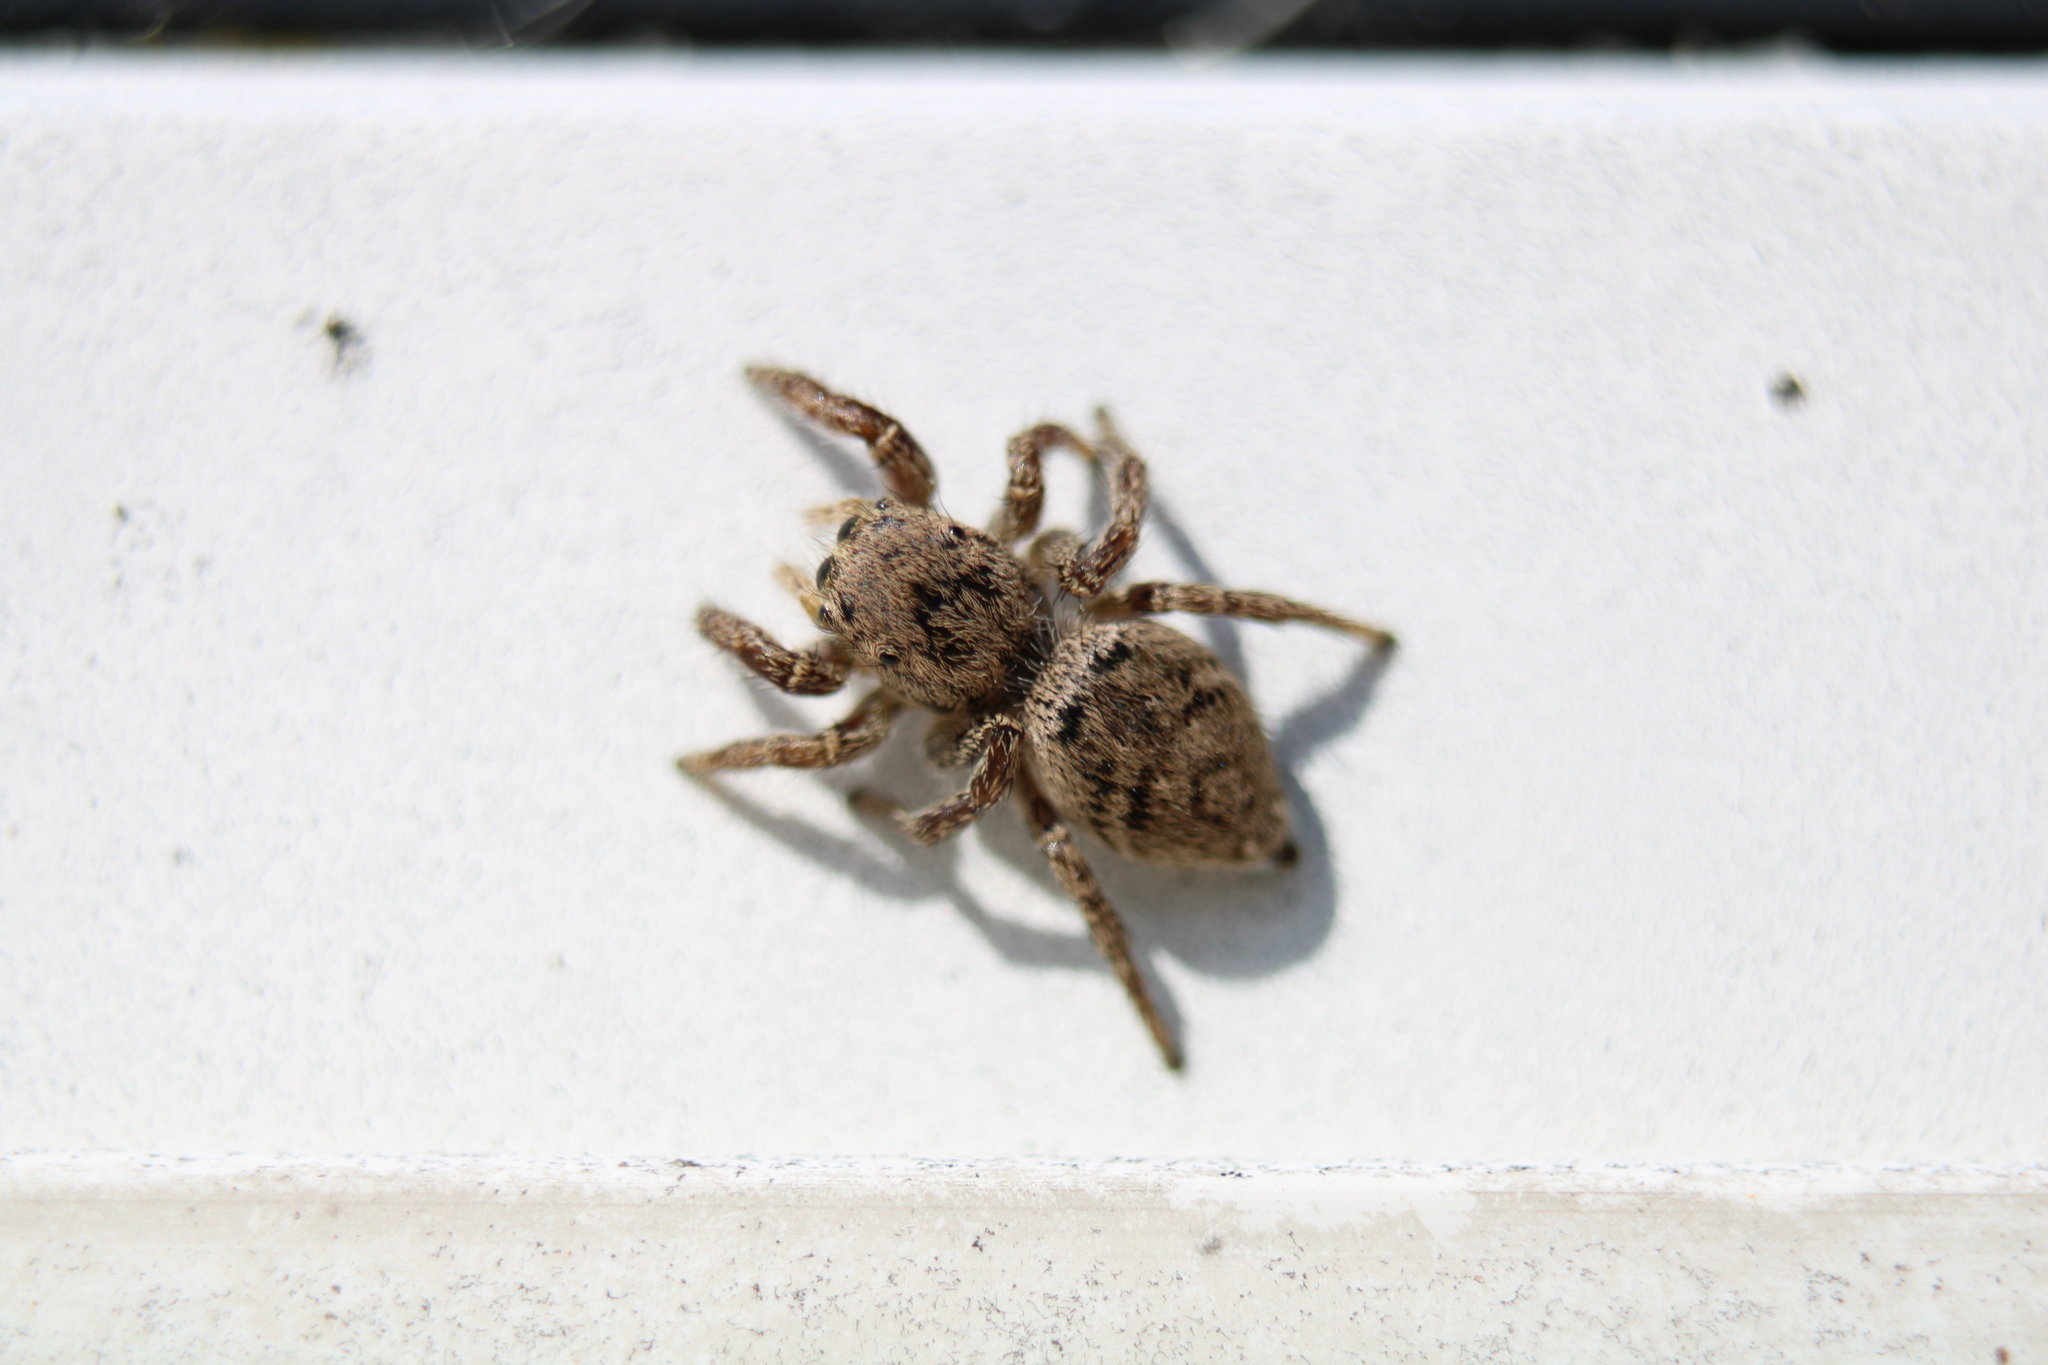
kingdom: Animalia
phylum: Arthropoda
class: Arachnida
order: Araneae
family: Salticidae
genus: Habronattus
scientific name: Habronattus coecatus
